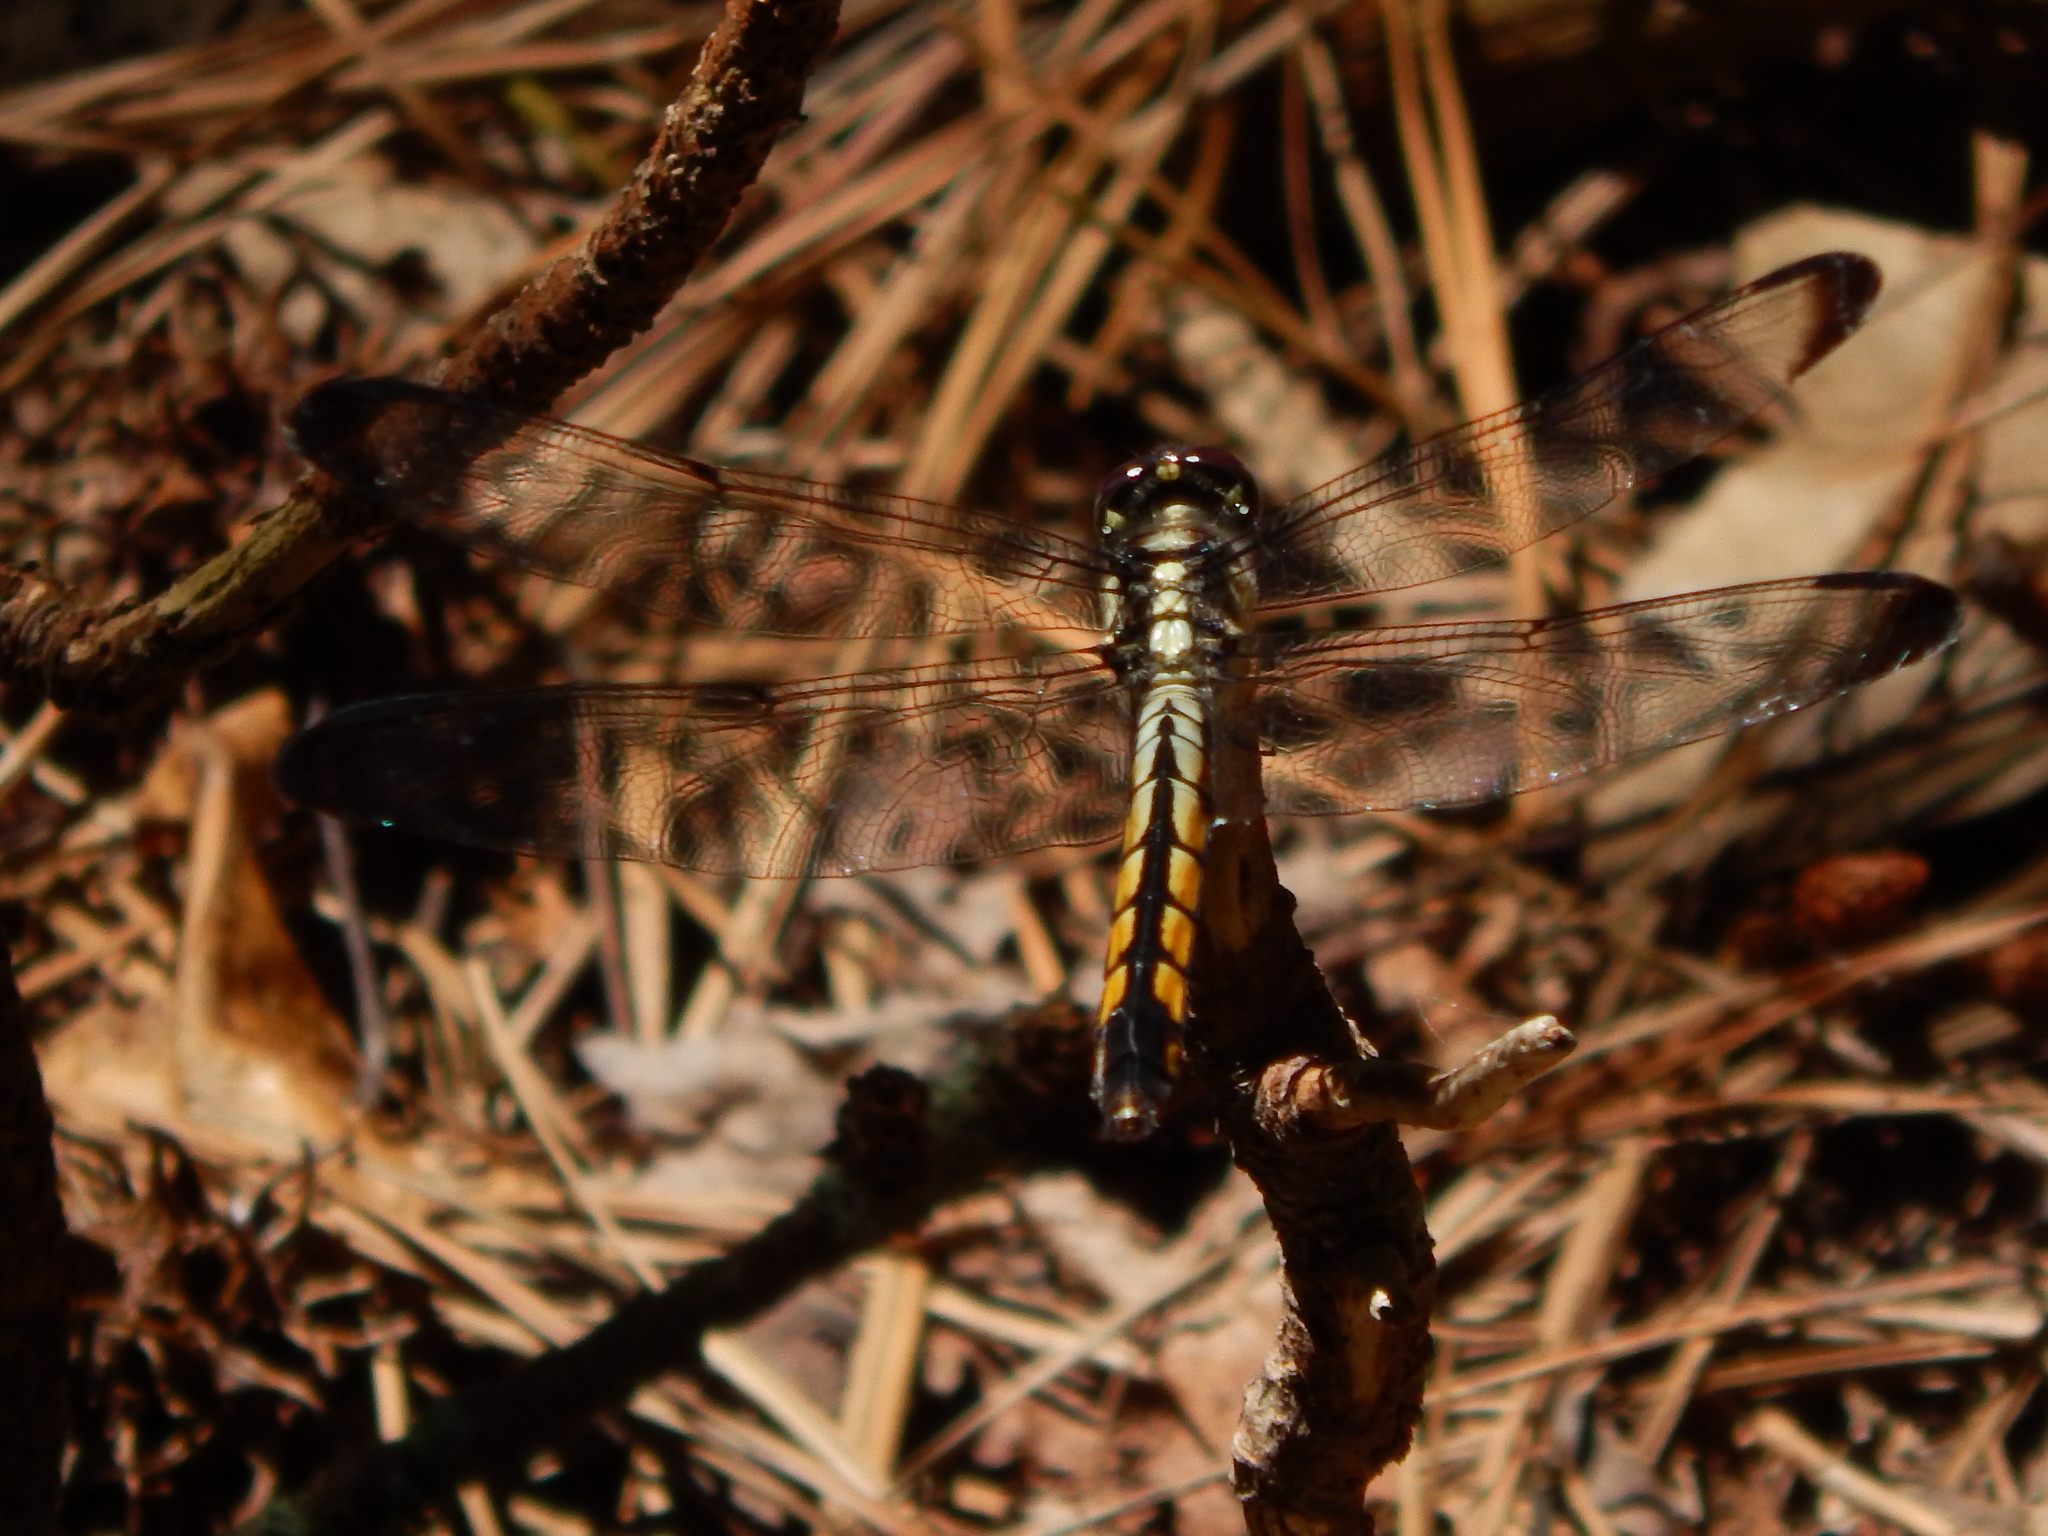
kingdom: Animalia
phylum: Arthropoda
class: Insecta
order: Odonata
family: Libellulidae
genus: Libellula
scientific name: Libellula vibrans
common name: Great blue skimmer
